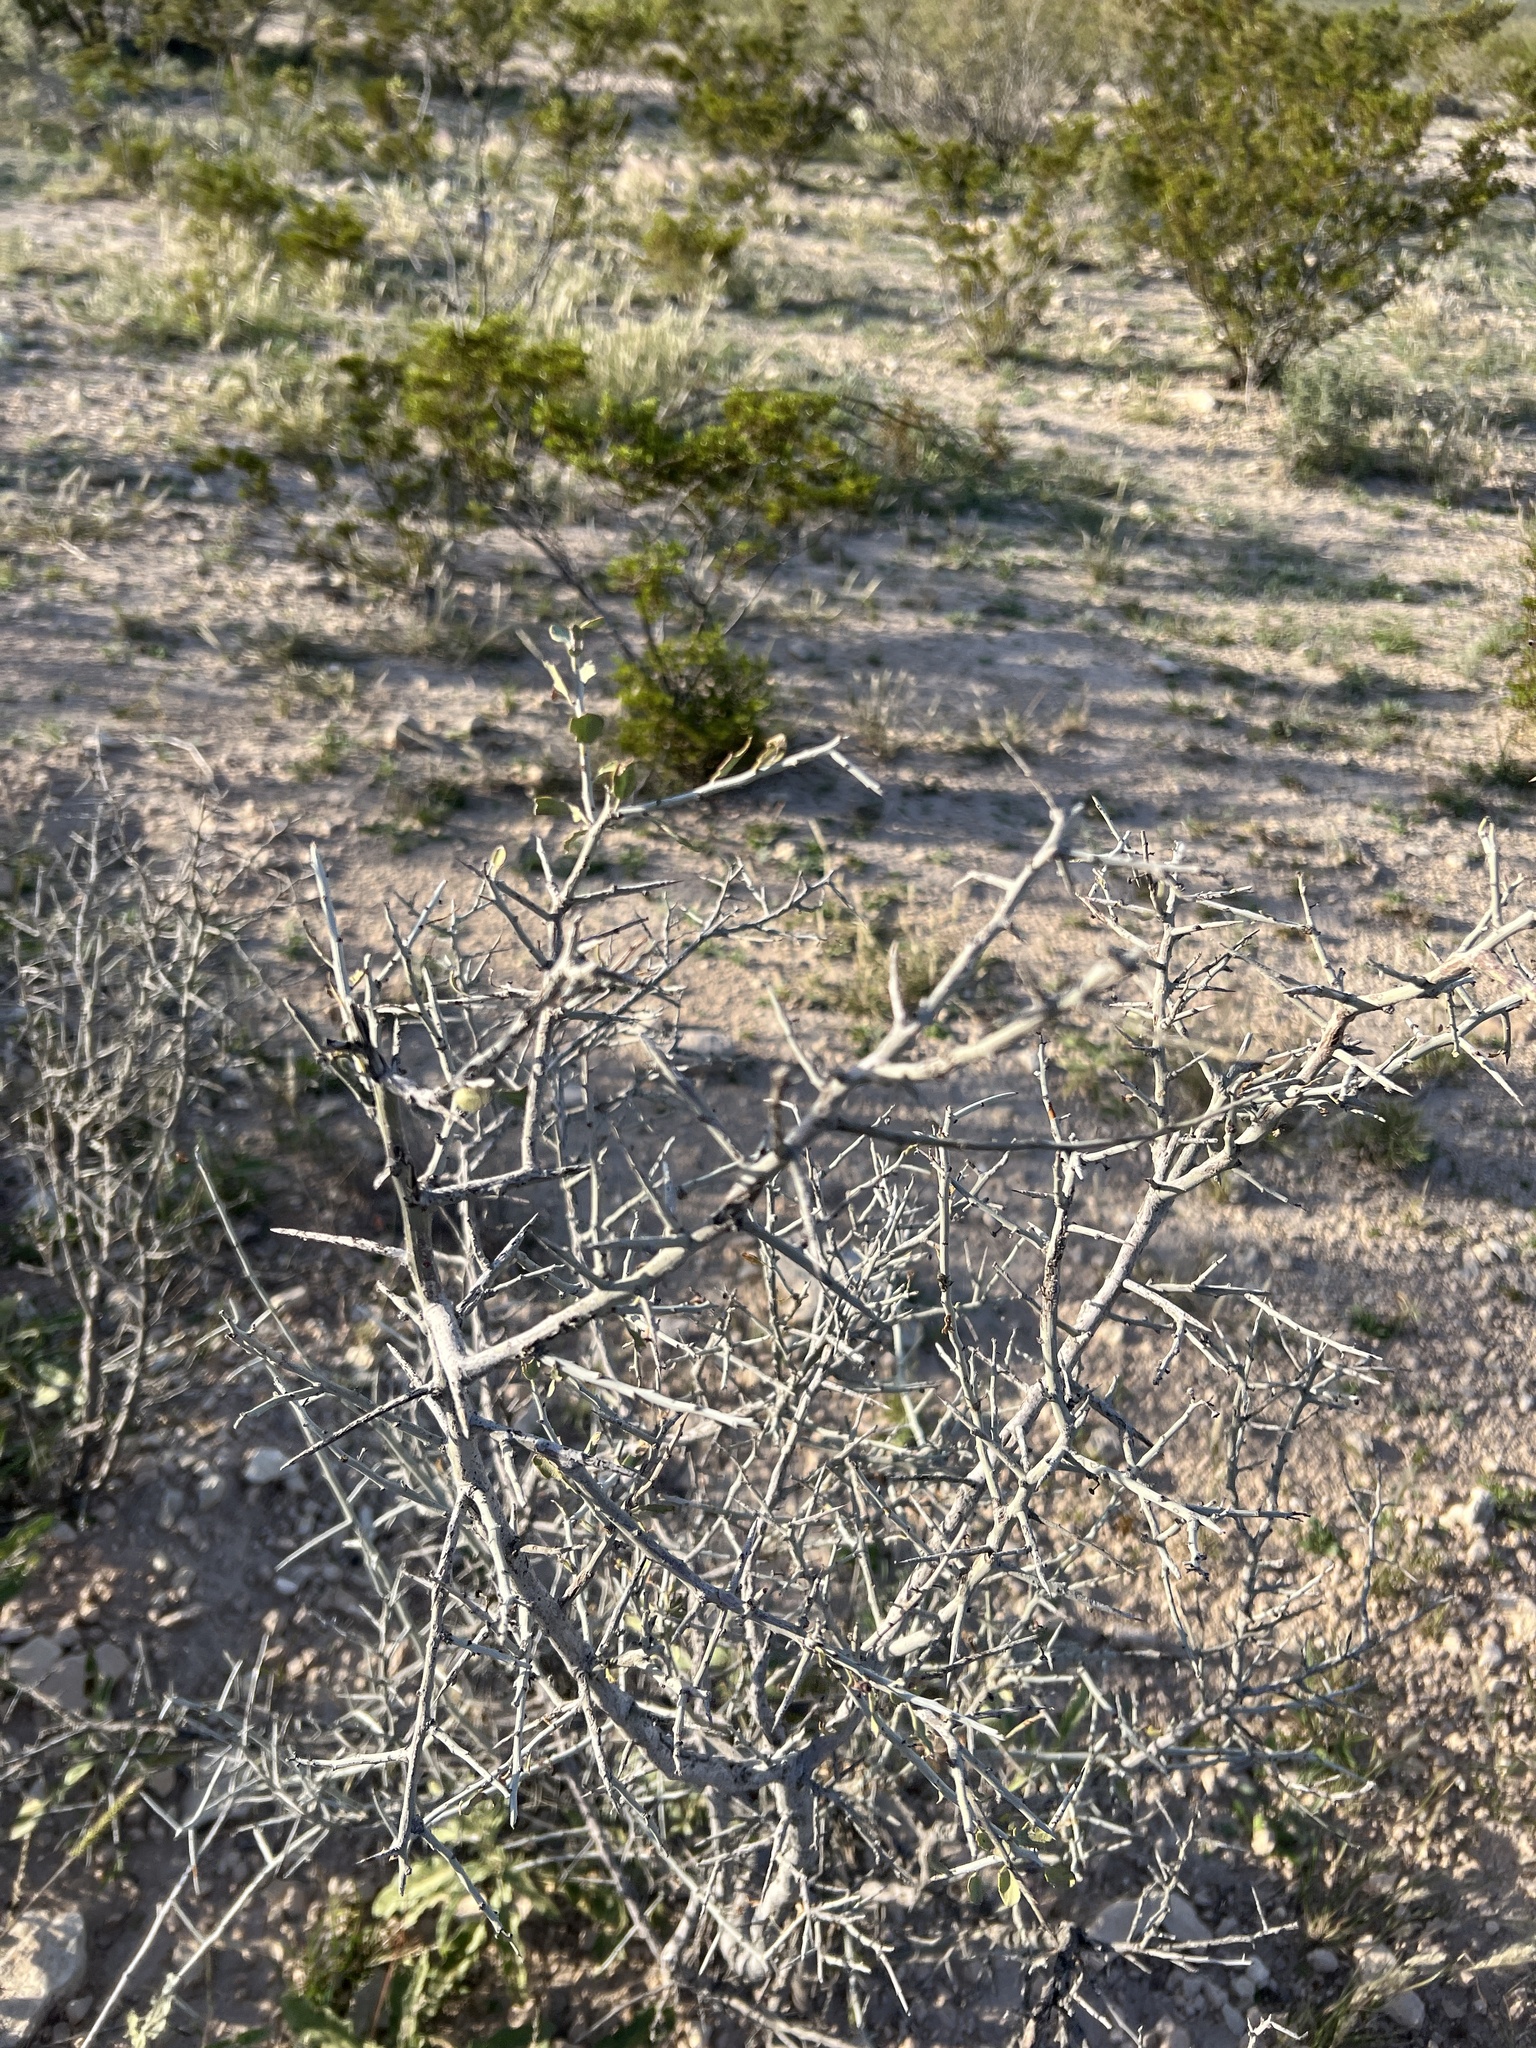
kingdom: Plantae
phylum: Tracheophyta
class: Magnoliopsida
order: Rosales
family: Rhamnaceae
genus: Sarcomphalus
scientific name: Sarcomphalus obtusifolius
